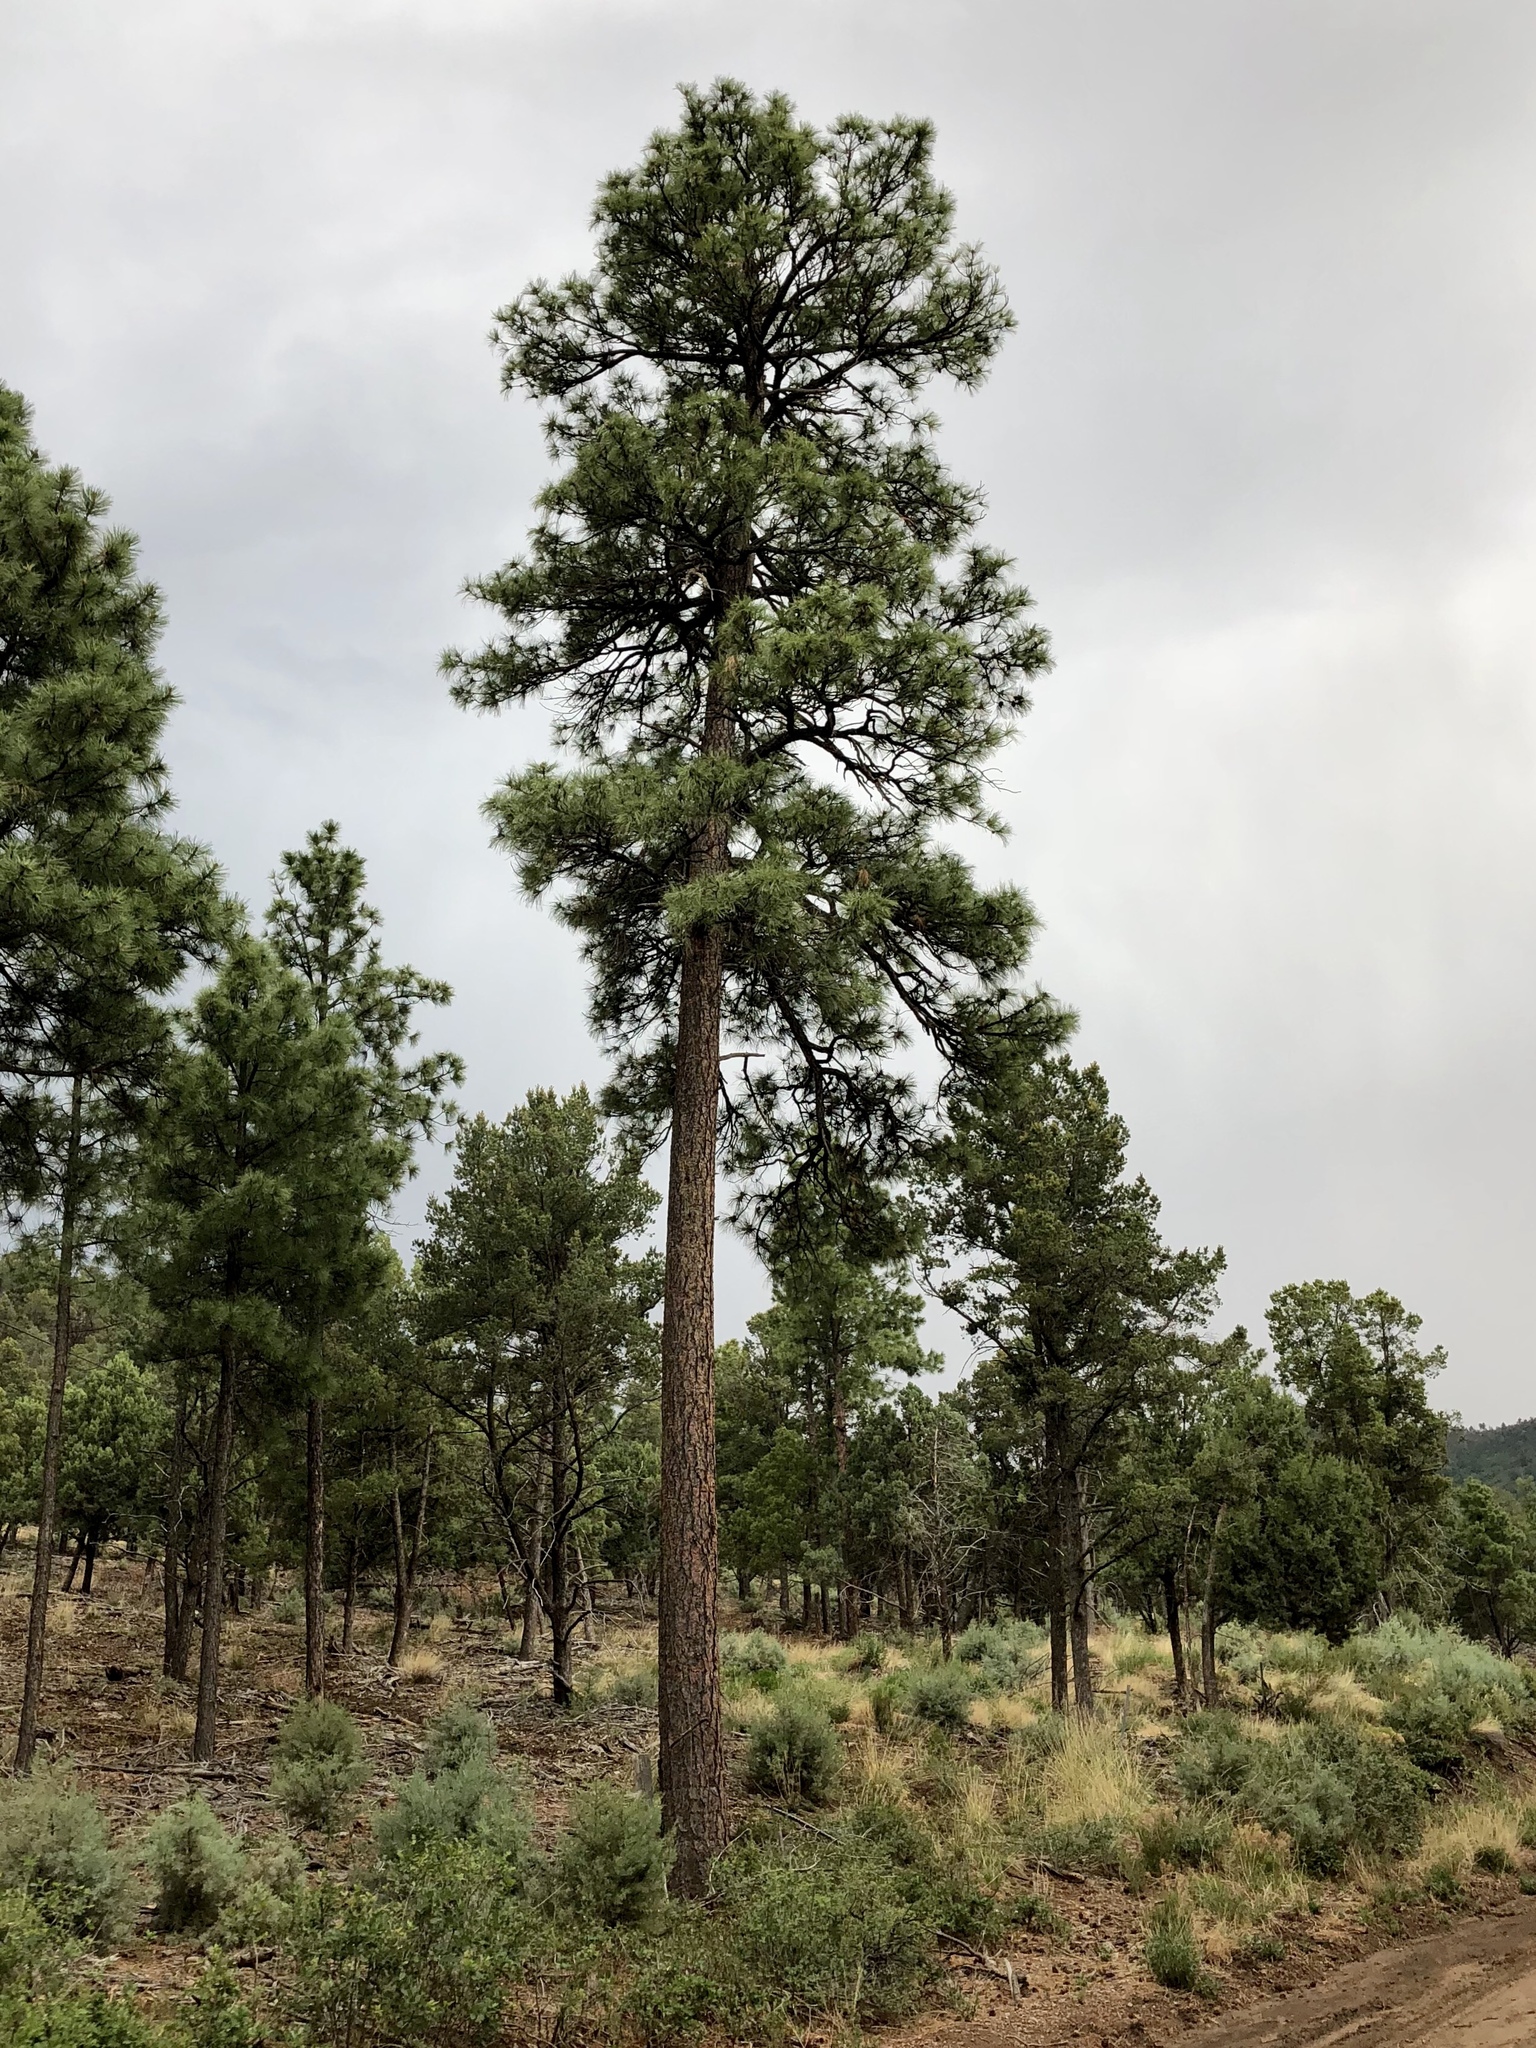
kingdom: Plantae
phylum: Tracheophyta
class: Pinopsida
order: Pinales
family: Pinaceae
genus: Pinus
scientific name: Pinus ponderosa
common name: Western yellow-pine
